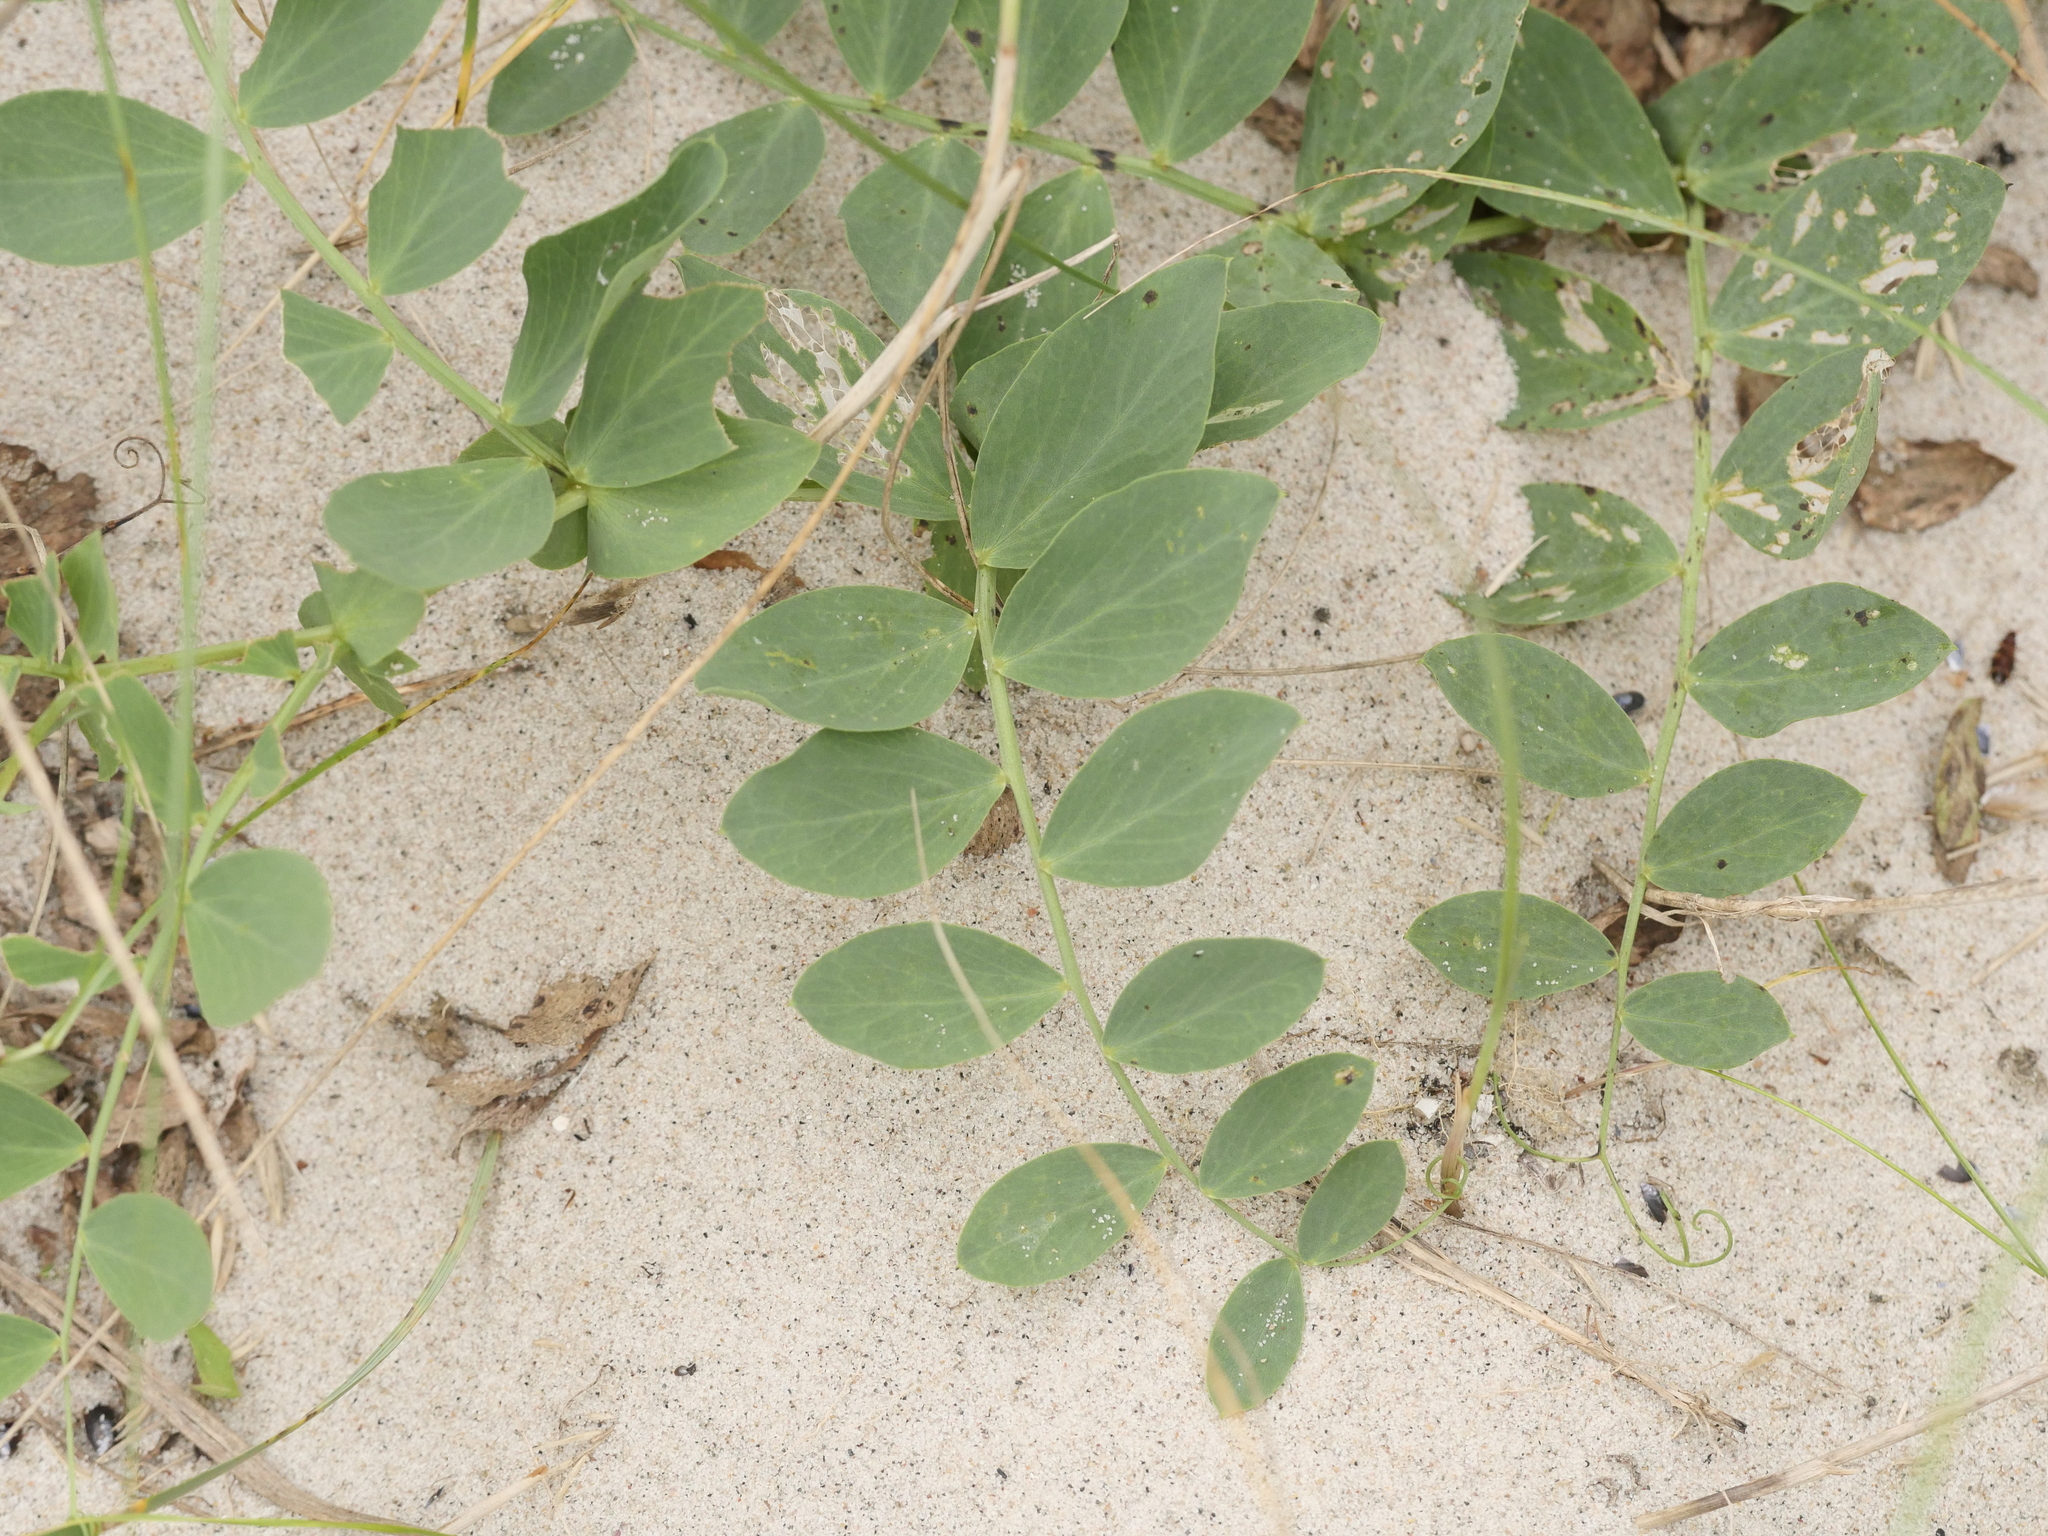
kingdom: Plantae
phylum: Tracheophyta
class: Magnoliopsida
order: Fabales
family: Fabaceae
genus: Lathyrus
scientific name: Lathyrus japonicus
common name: Sea pea
